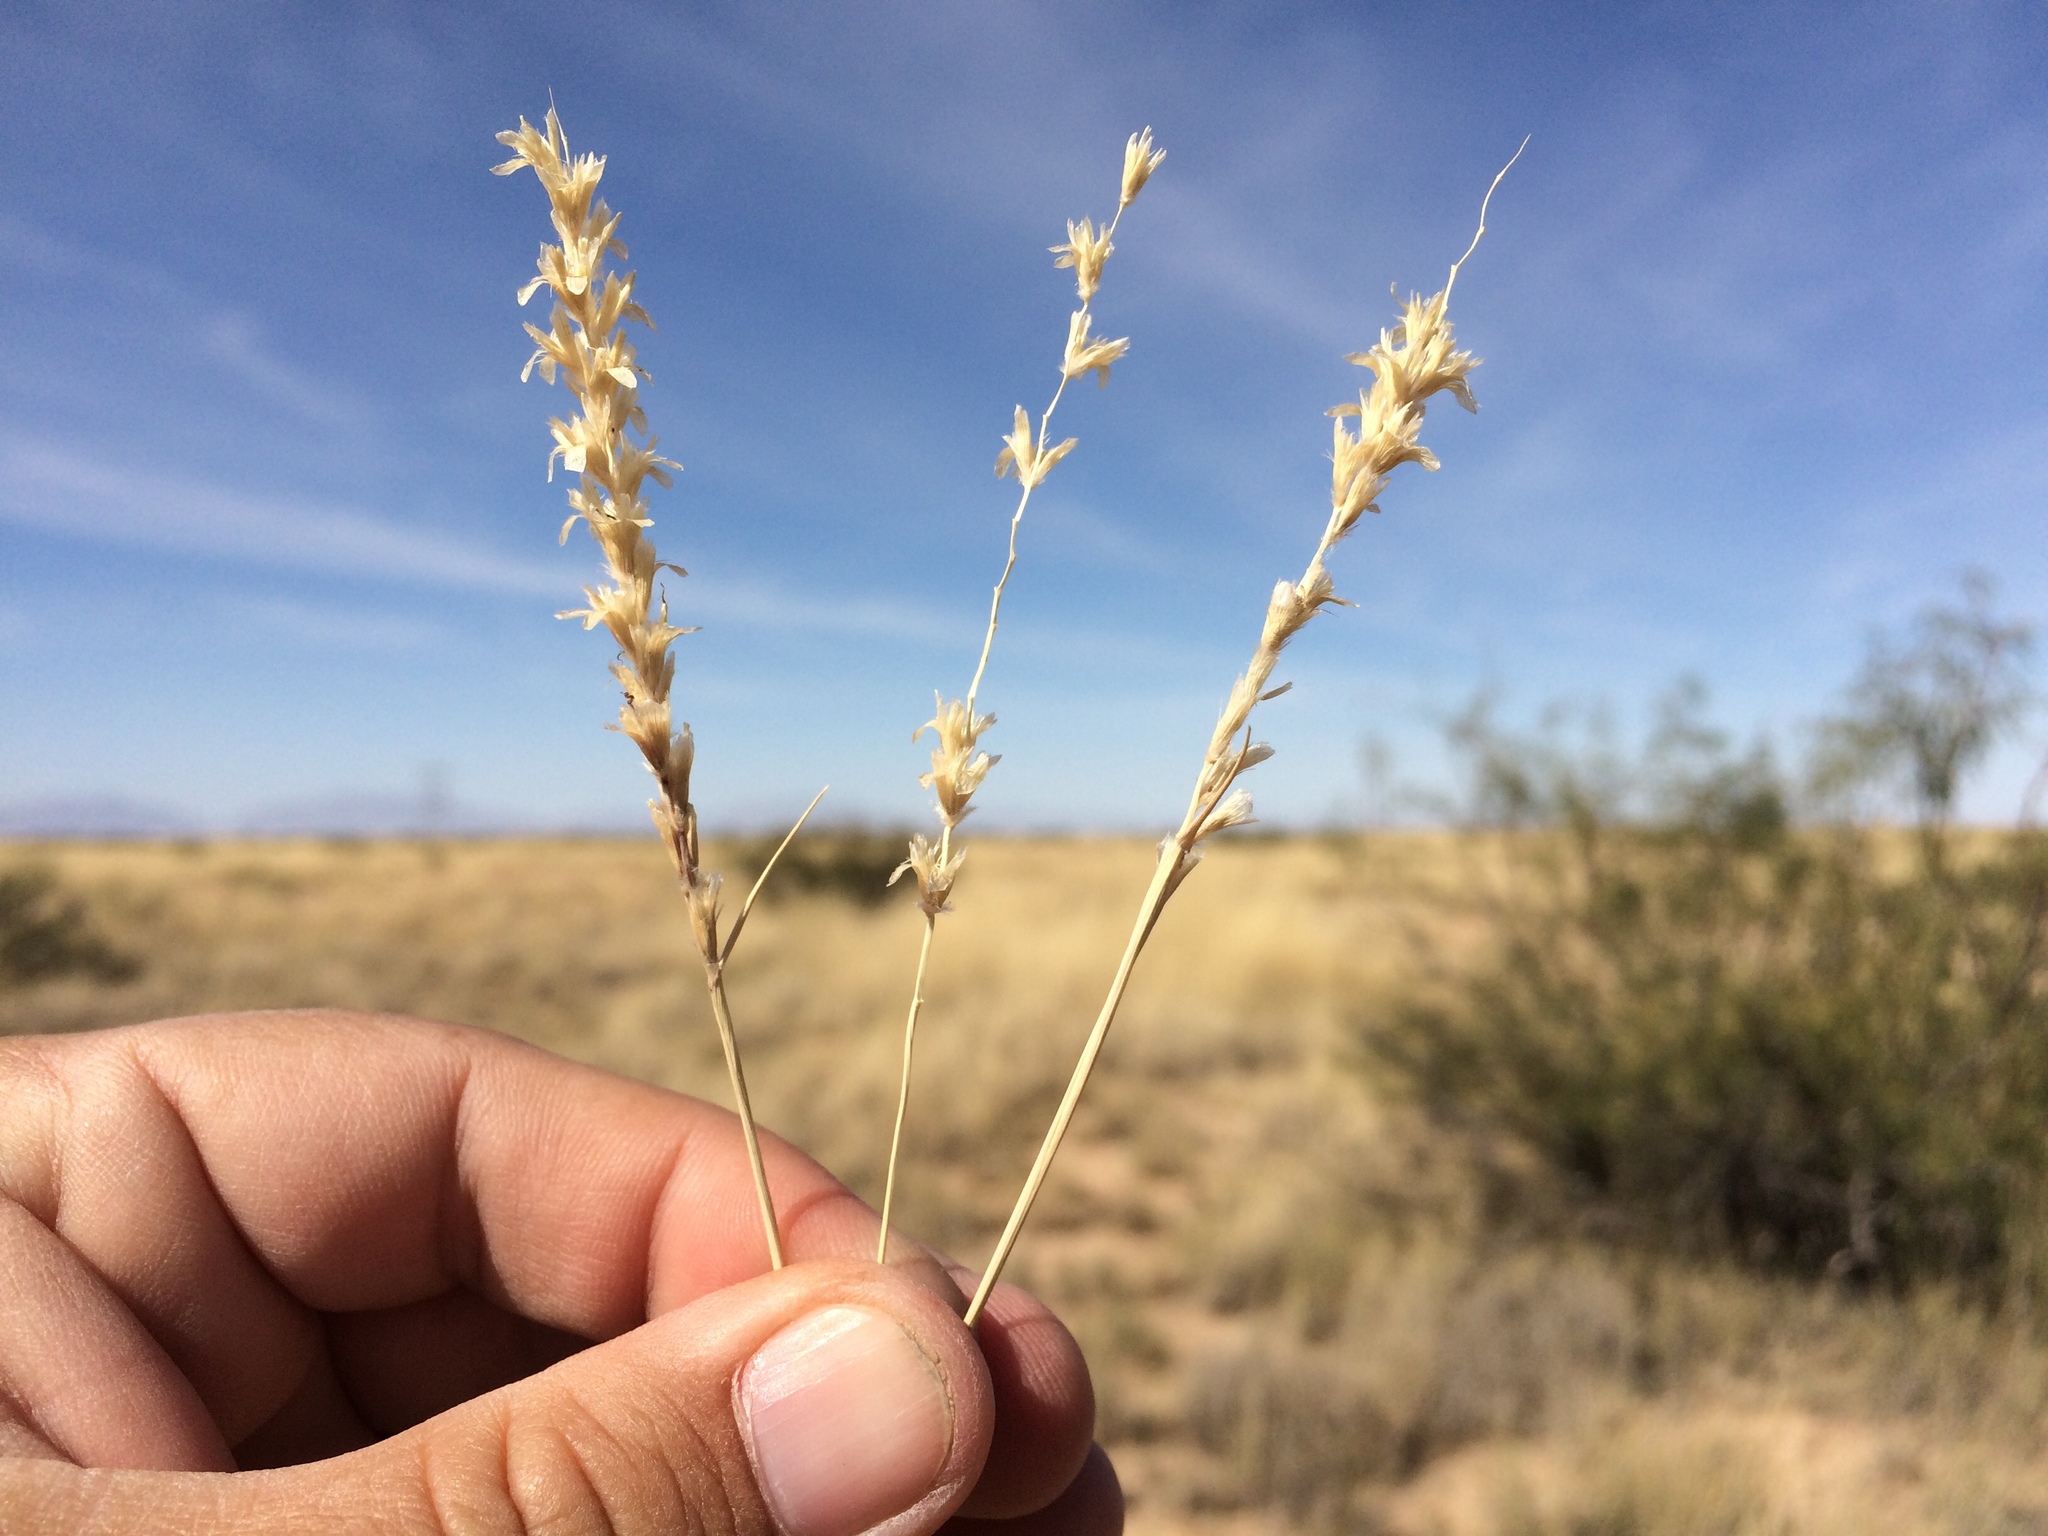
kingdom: Plantae
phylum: Tracheophyta
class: Liliopsida
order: Poales
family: Poaceae
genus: Hilaria
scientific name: Hilaria mutica
